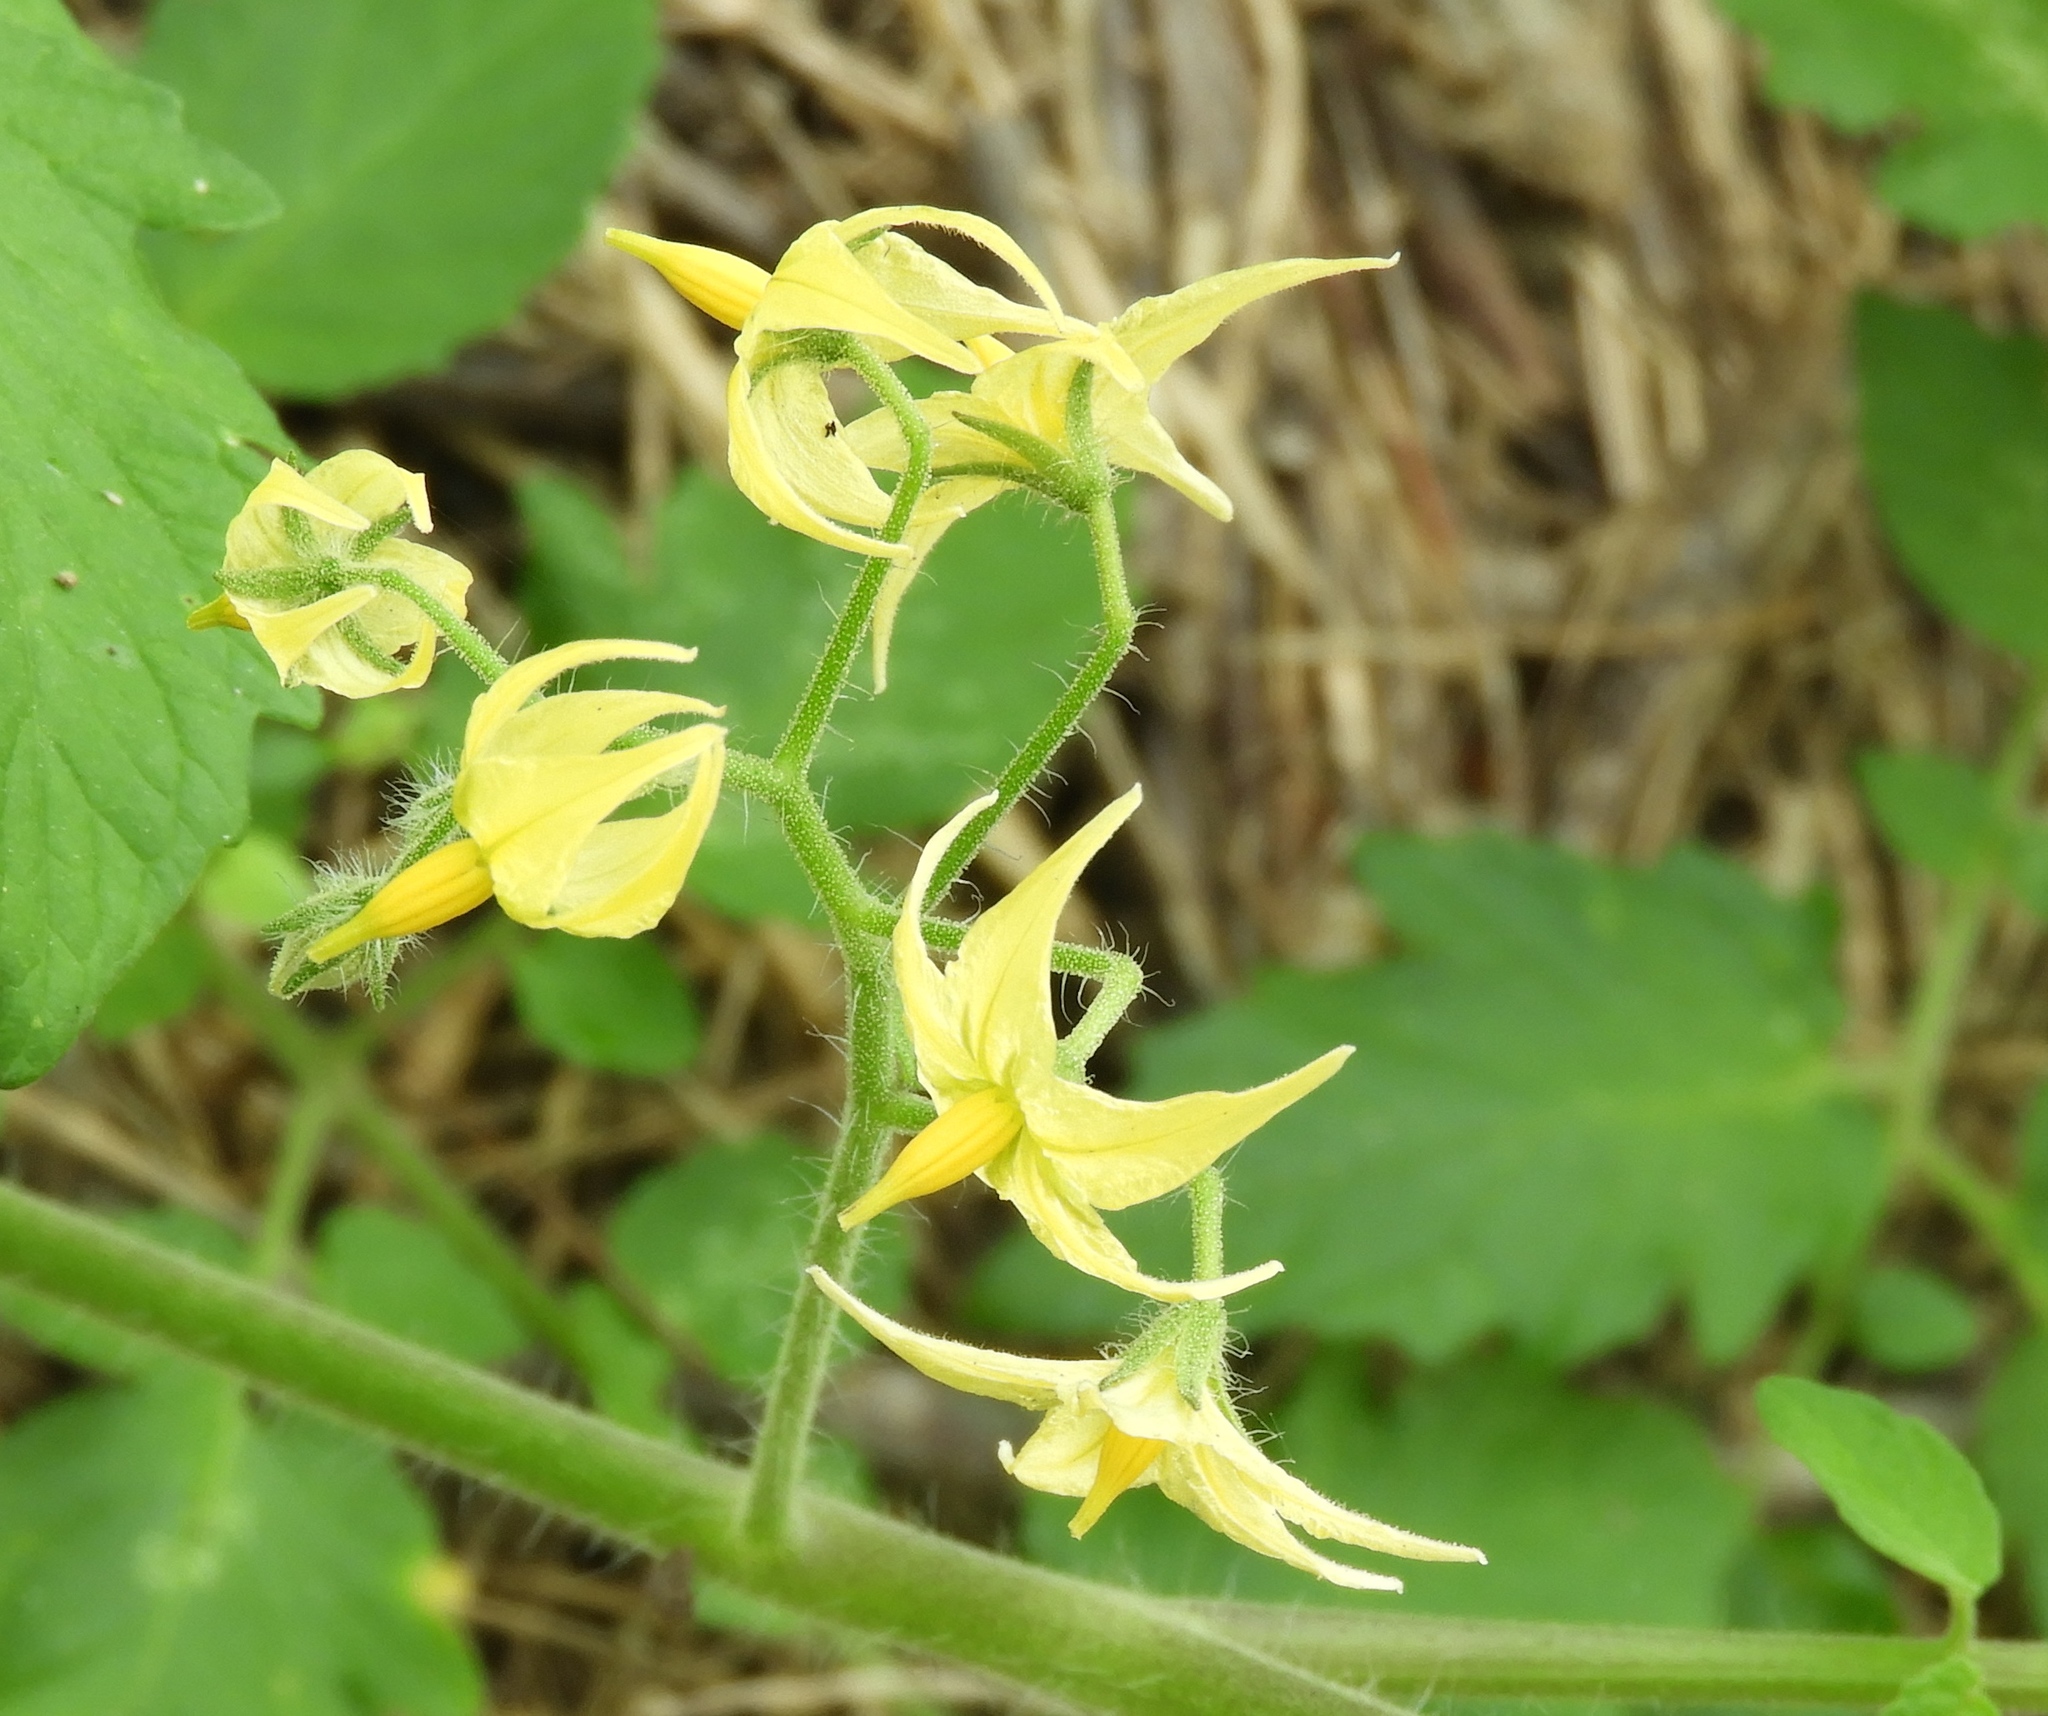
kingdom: Plantae
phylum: Tracheophyta
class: Magnoliopsida
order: Solanales
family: Solanaceae
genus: Solanum
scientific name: Solanum lycopersicum
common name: Garden tomato
